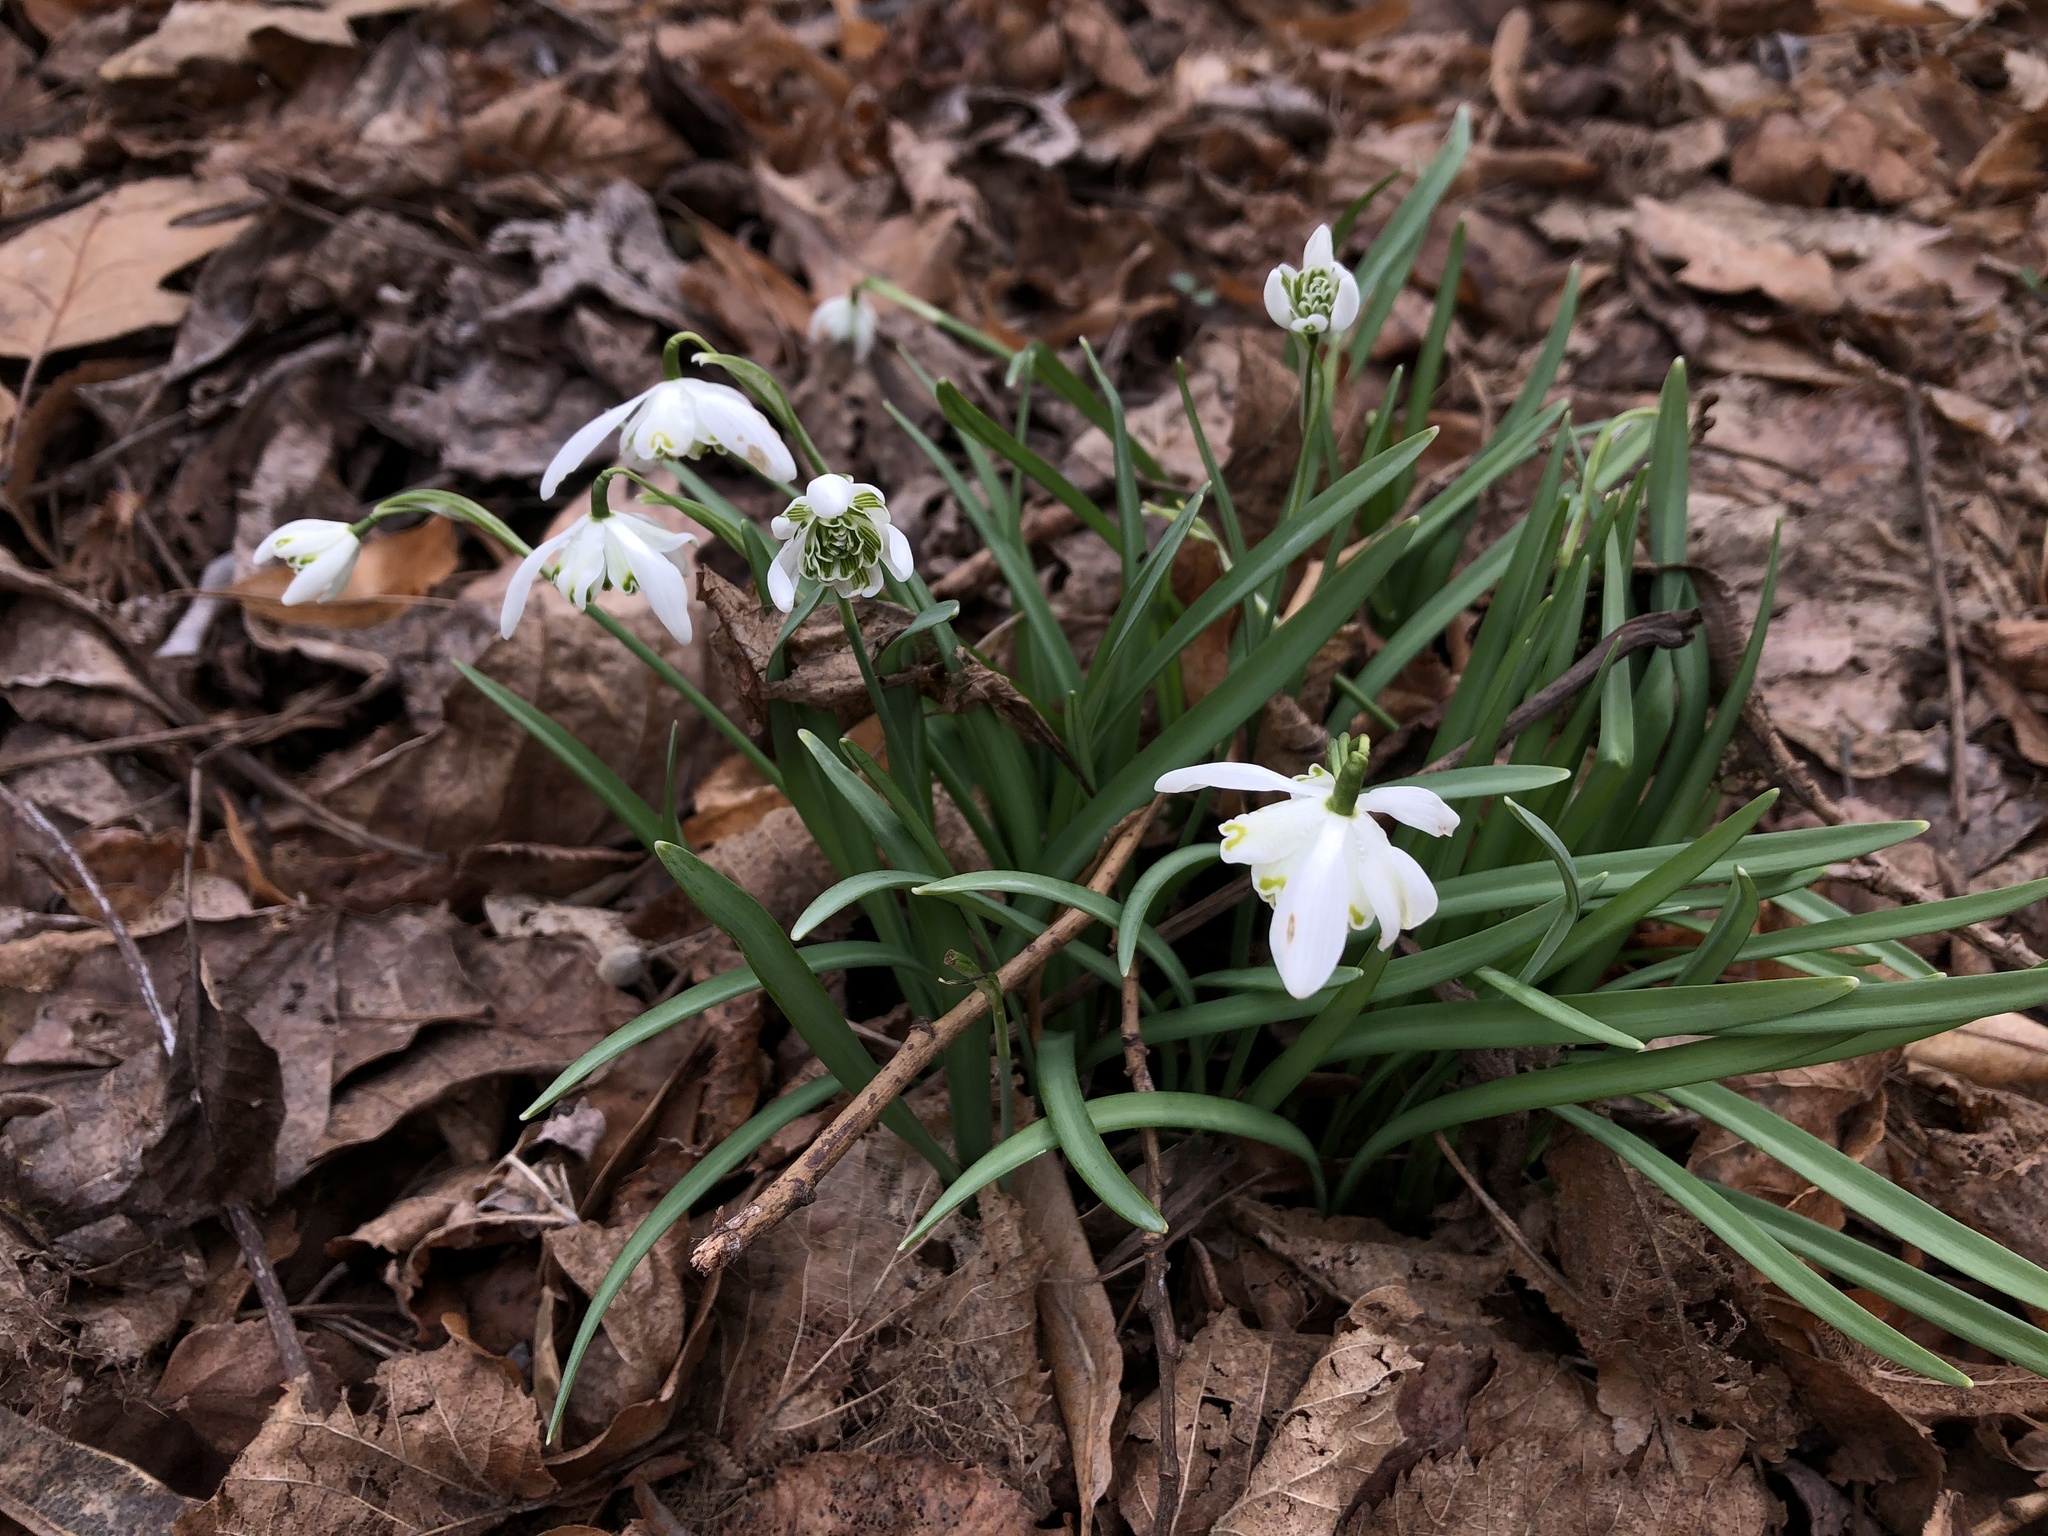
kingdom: Plantae
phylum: Tracheophyta
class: Liliopsida
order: Asparagales
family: Amaryllidaceae
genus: Galanthus
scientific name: Galanthus nivalis
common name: Snowdrop
